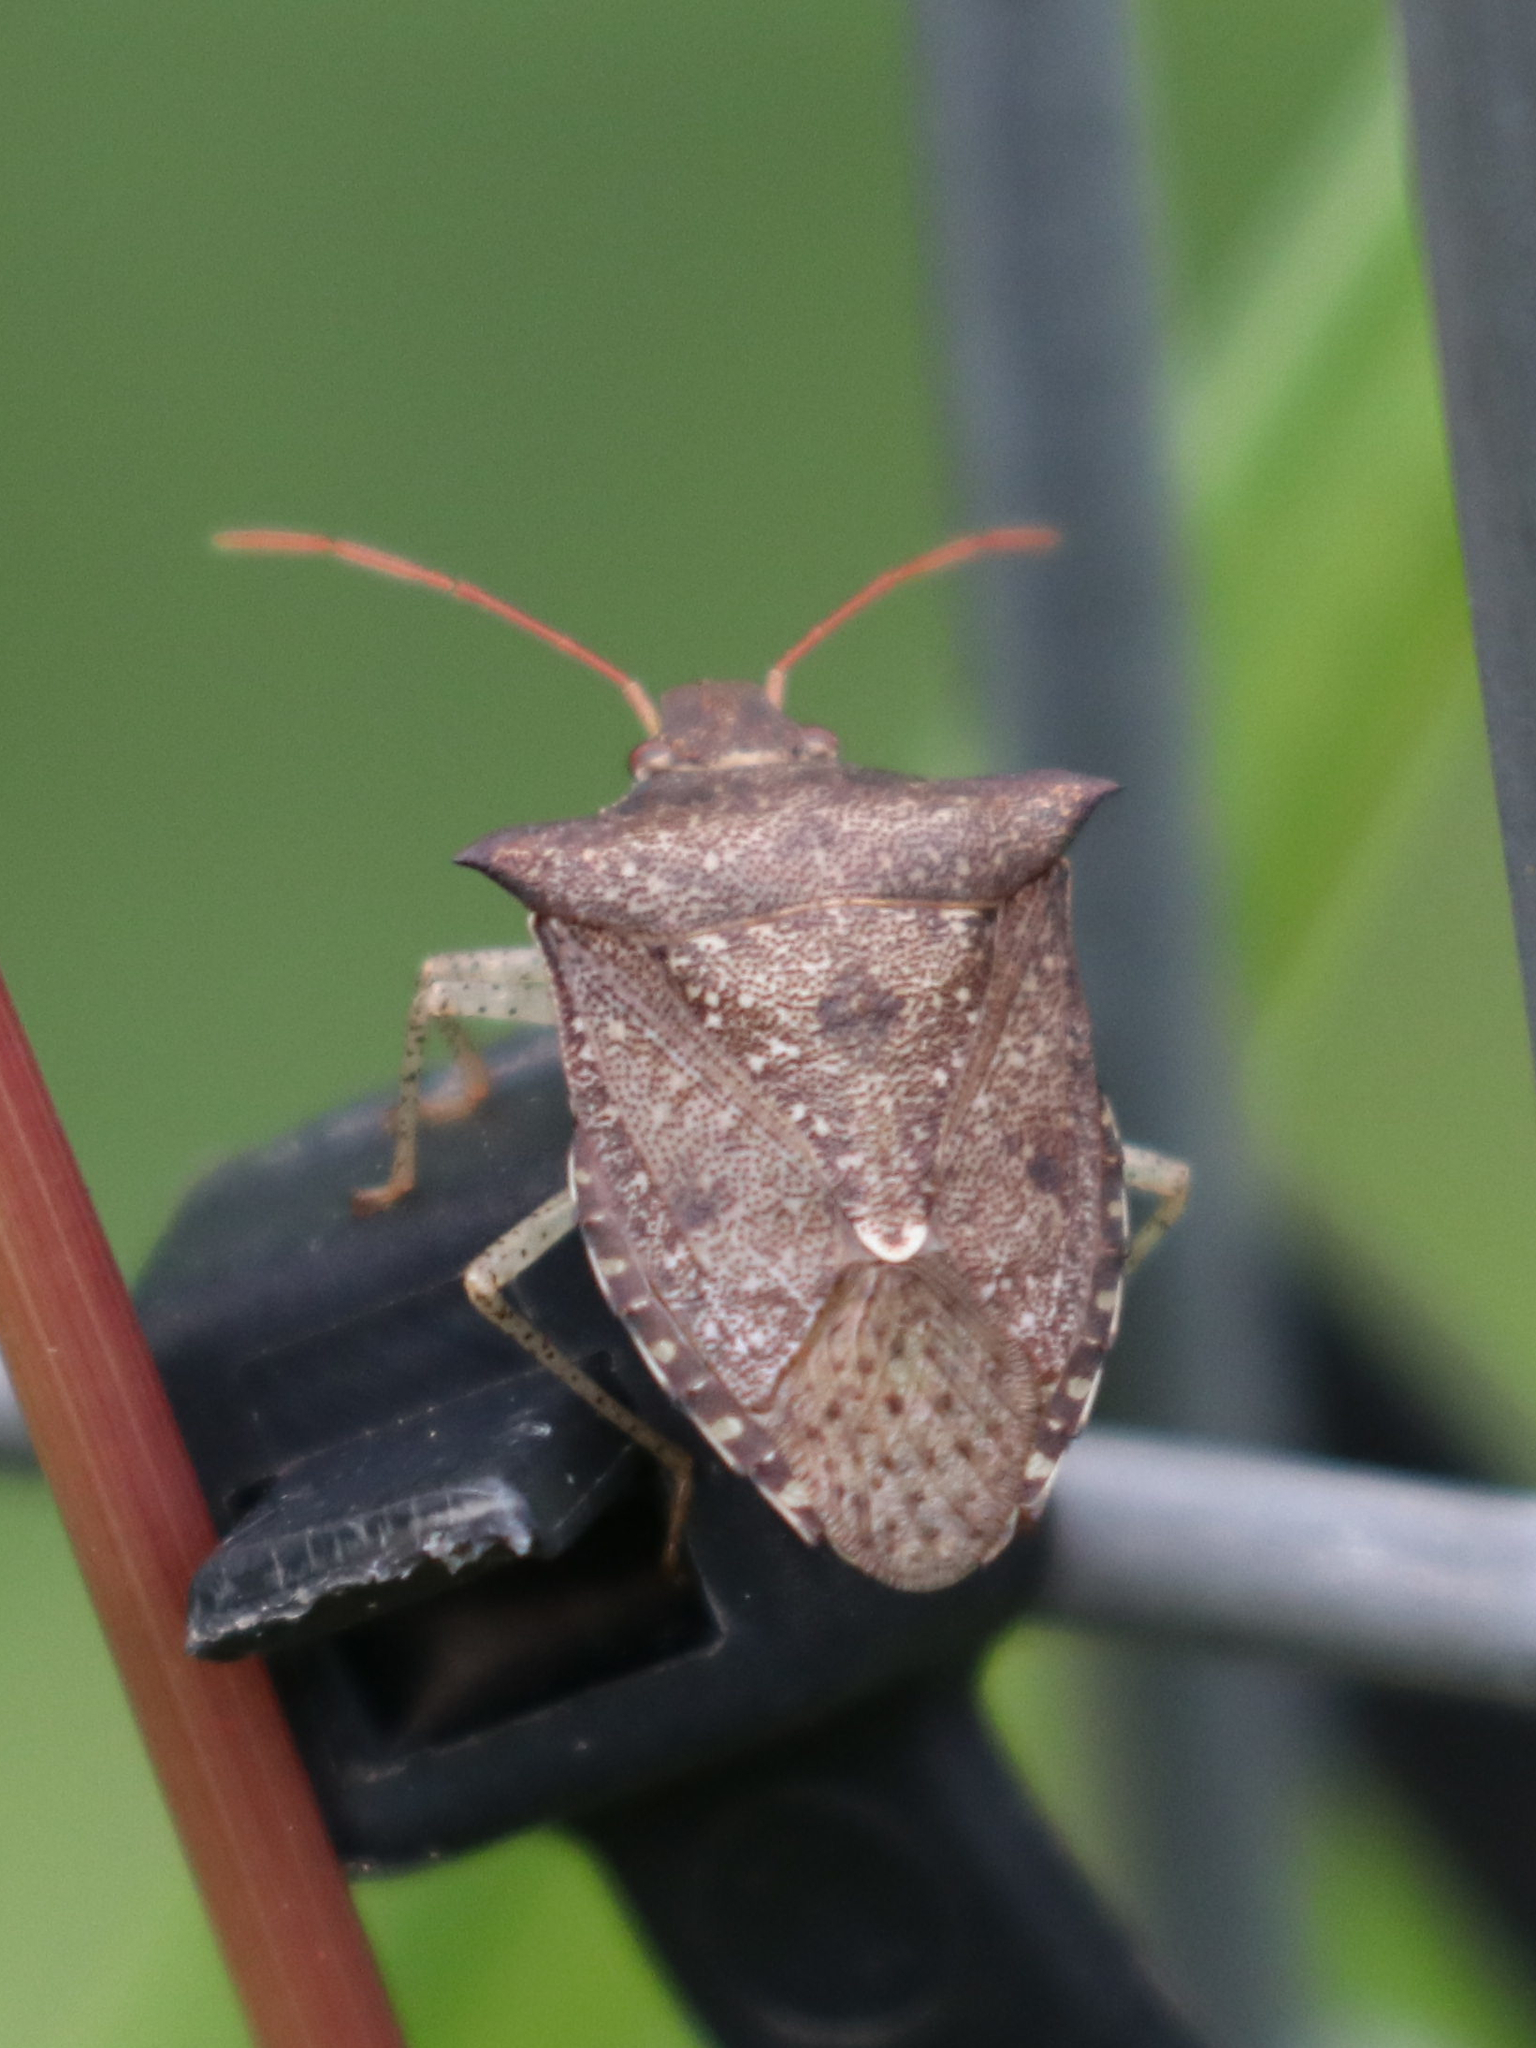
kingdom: Animalia
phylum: Arthropoda
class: Insecta
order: Hemiptera
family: Pentatomidae
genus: Euschistus
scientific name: Euschistus tristigmus
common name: Dusky stink bug
